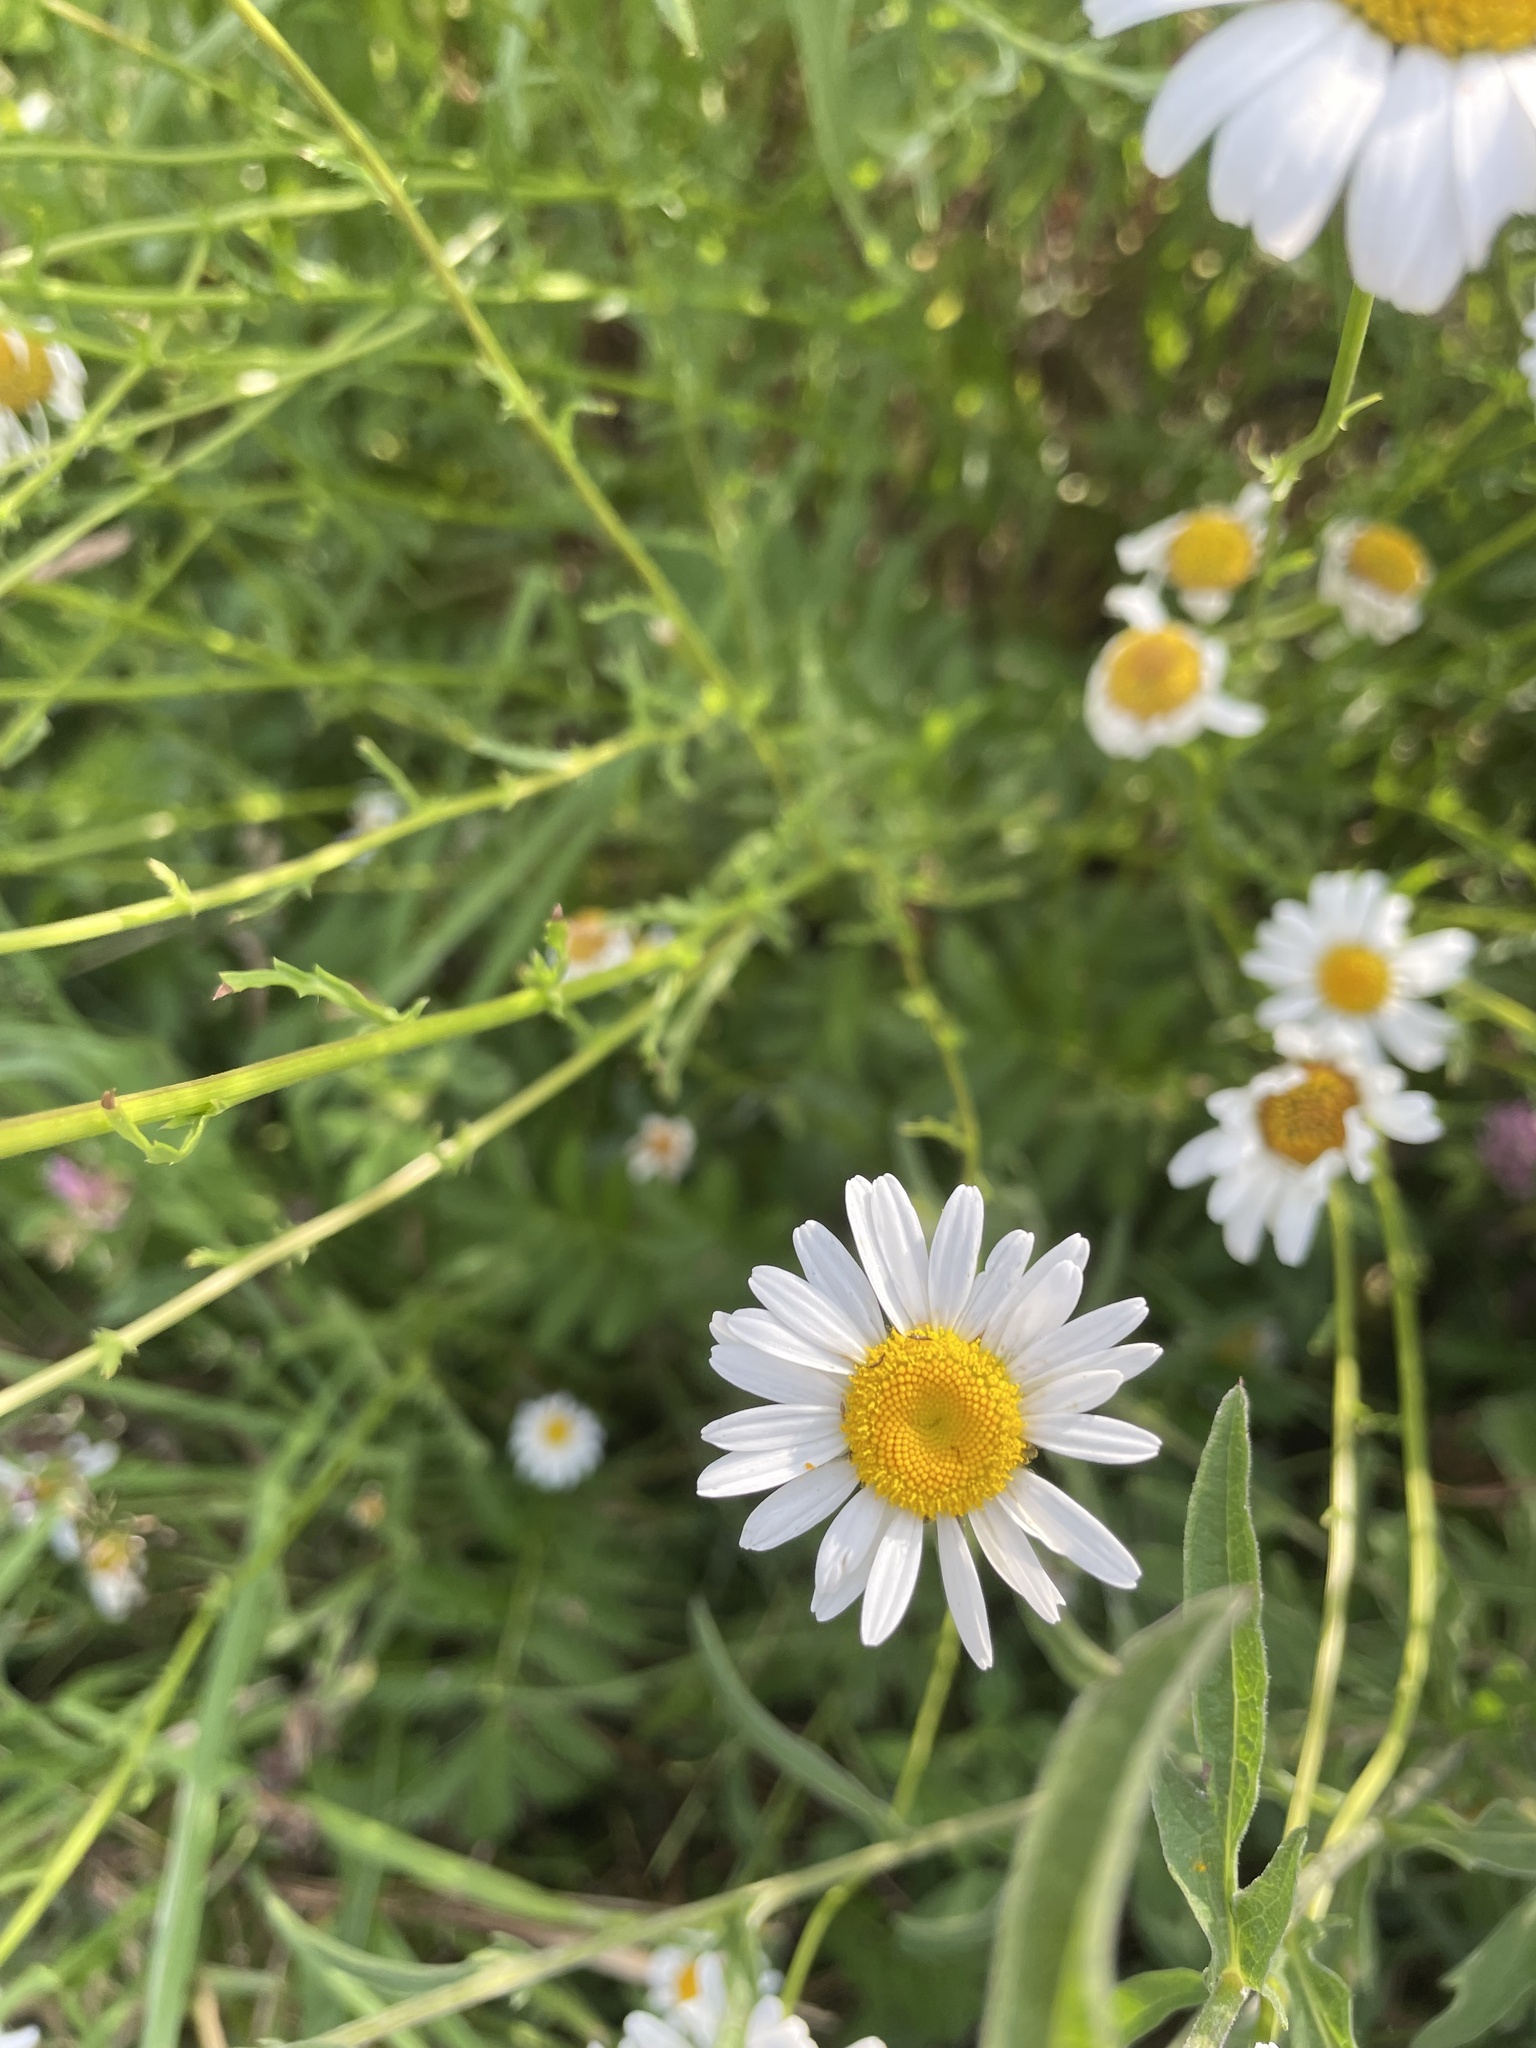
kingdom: Plantae
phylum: Tracheophyta
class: Magnoliopsida
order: Asterales
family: Asteraceae
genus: Leucanthemum
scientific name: Leucanthemum vulgare
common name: Oxeye daisy
